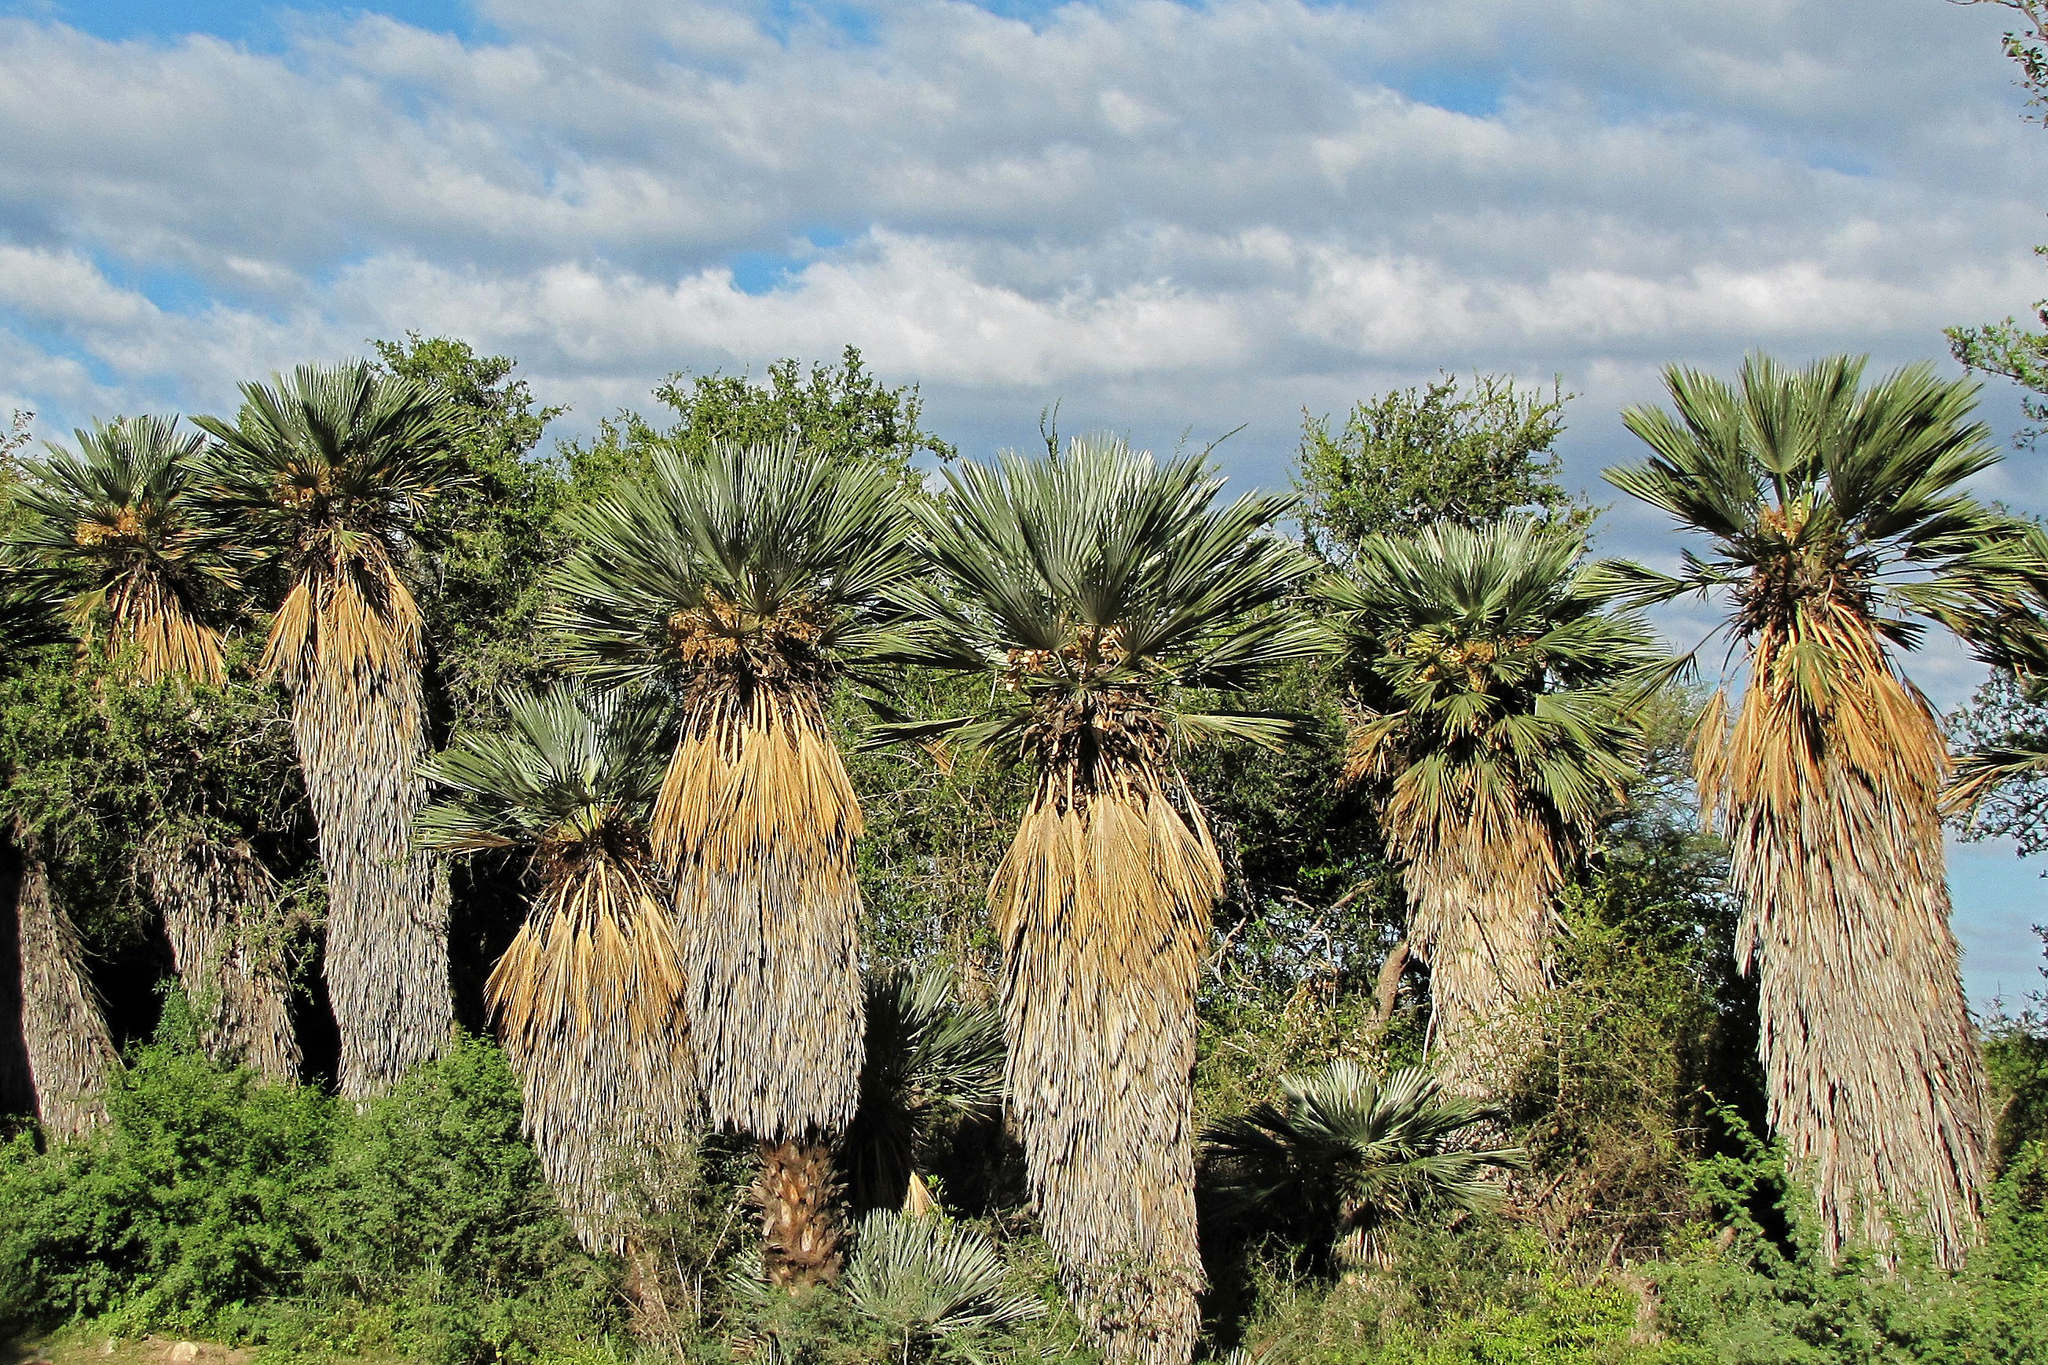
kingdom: Plantae
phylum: Tracheophyta
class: Liliopsida
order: Arecales
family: Arecaceae
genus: Trithrinax
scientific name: Trithrinax campestris
